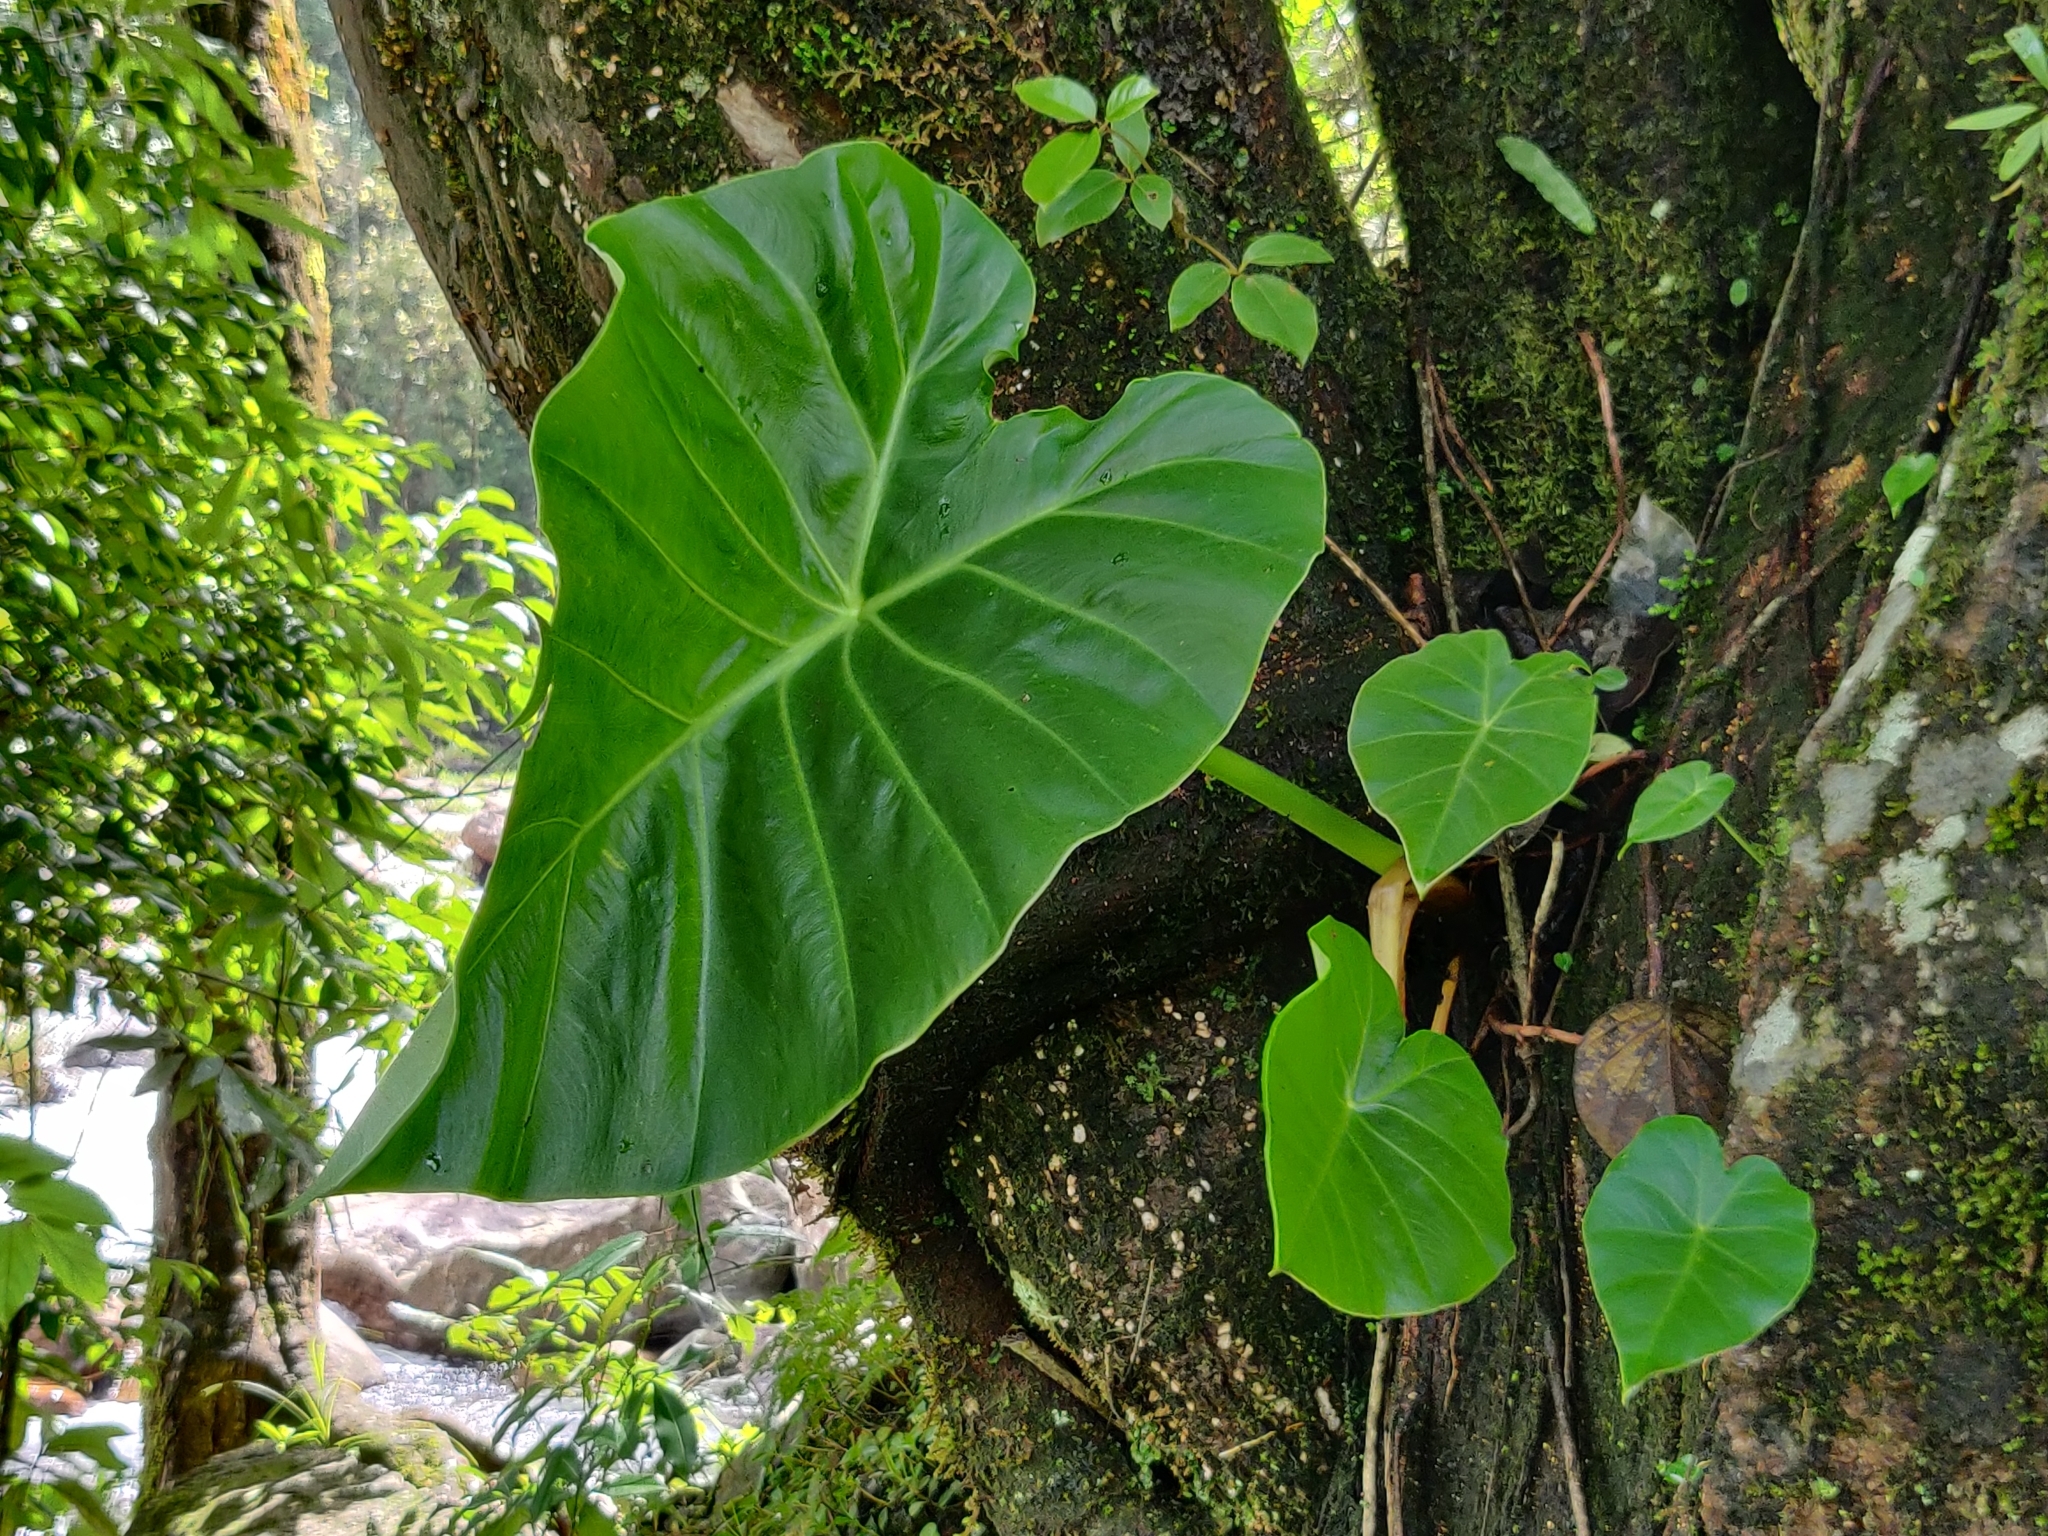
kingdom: Plantae
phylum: Tracheophyta
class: Liliopsida
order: Alismatales
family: Araceae
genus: Remusatia
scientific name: Remusatia vivipara
